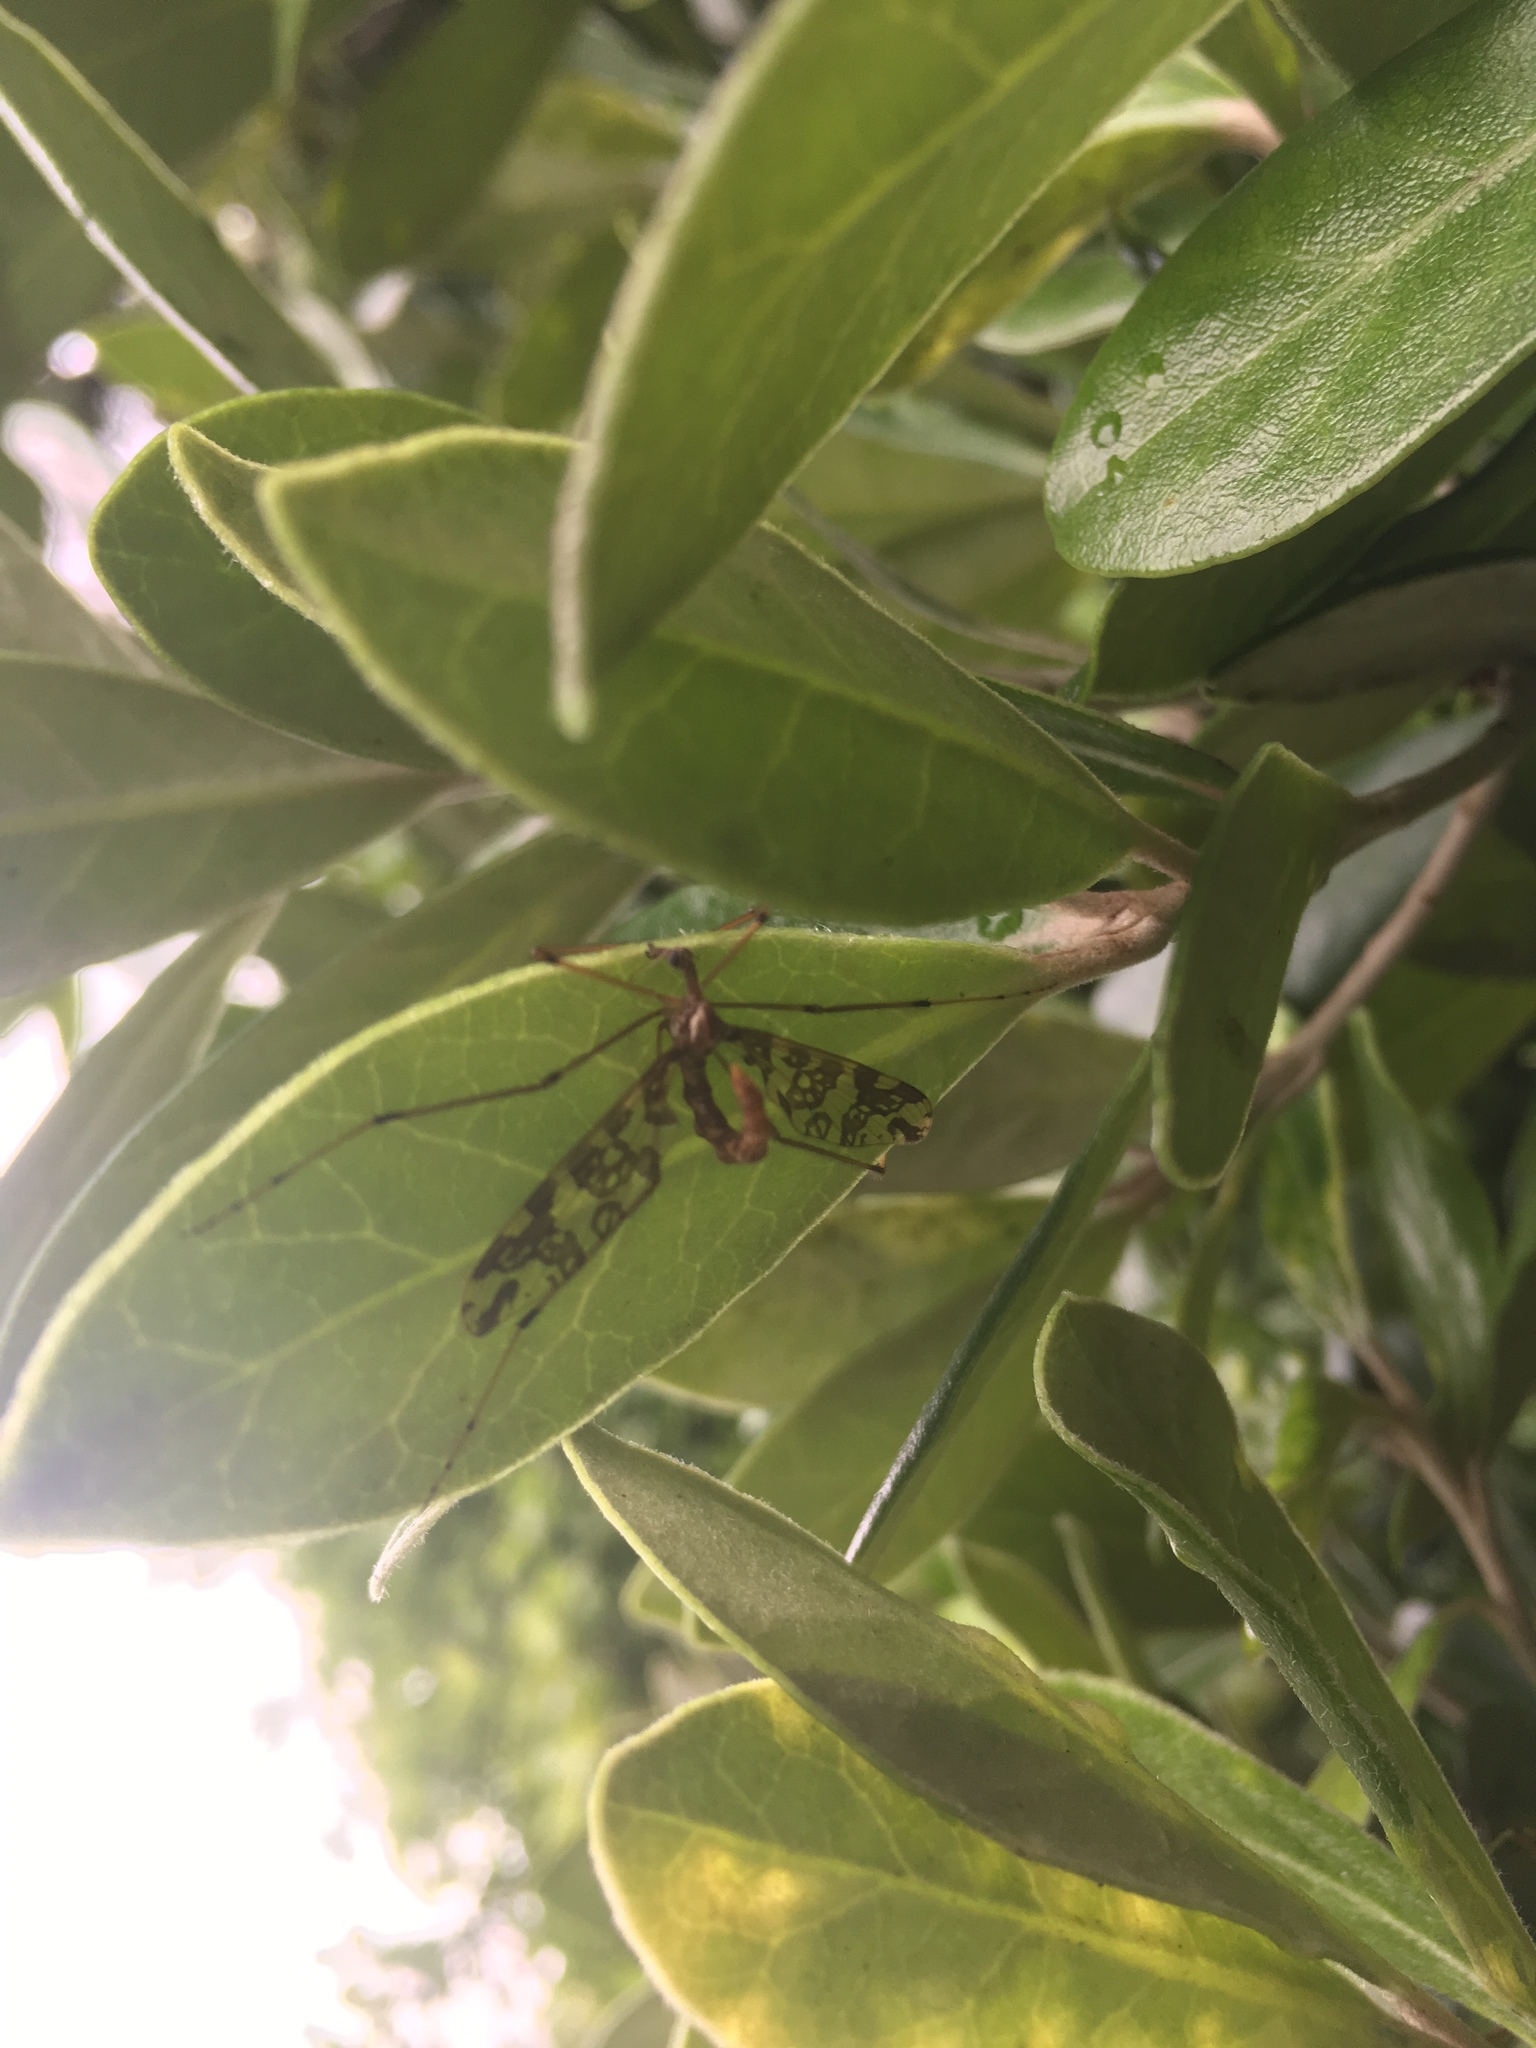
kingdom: Animalia
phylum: Arthropoda
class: Insecta
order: Diptera
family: Tanyderidae
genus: Tanyderus
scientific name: Tanyderus annuliferus
